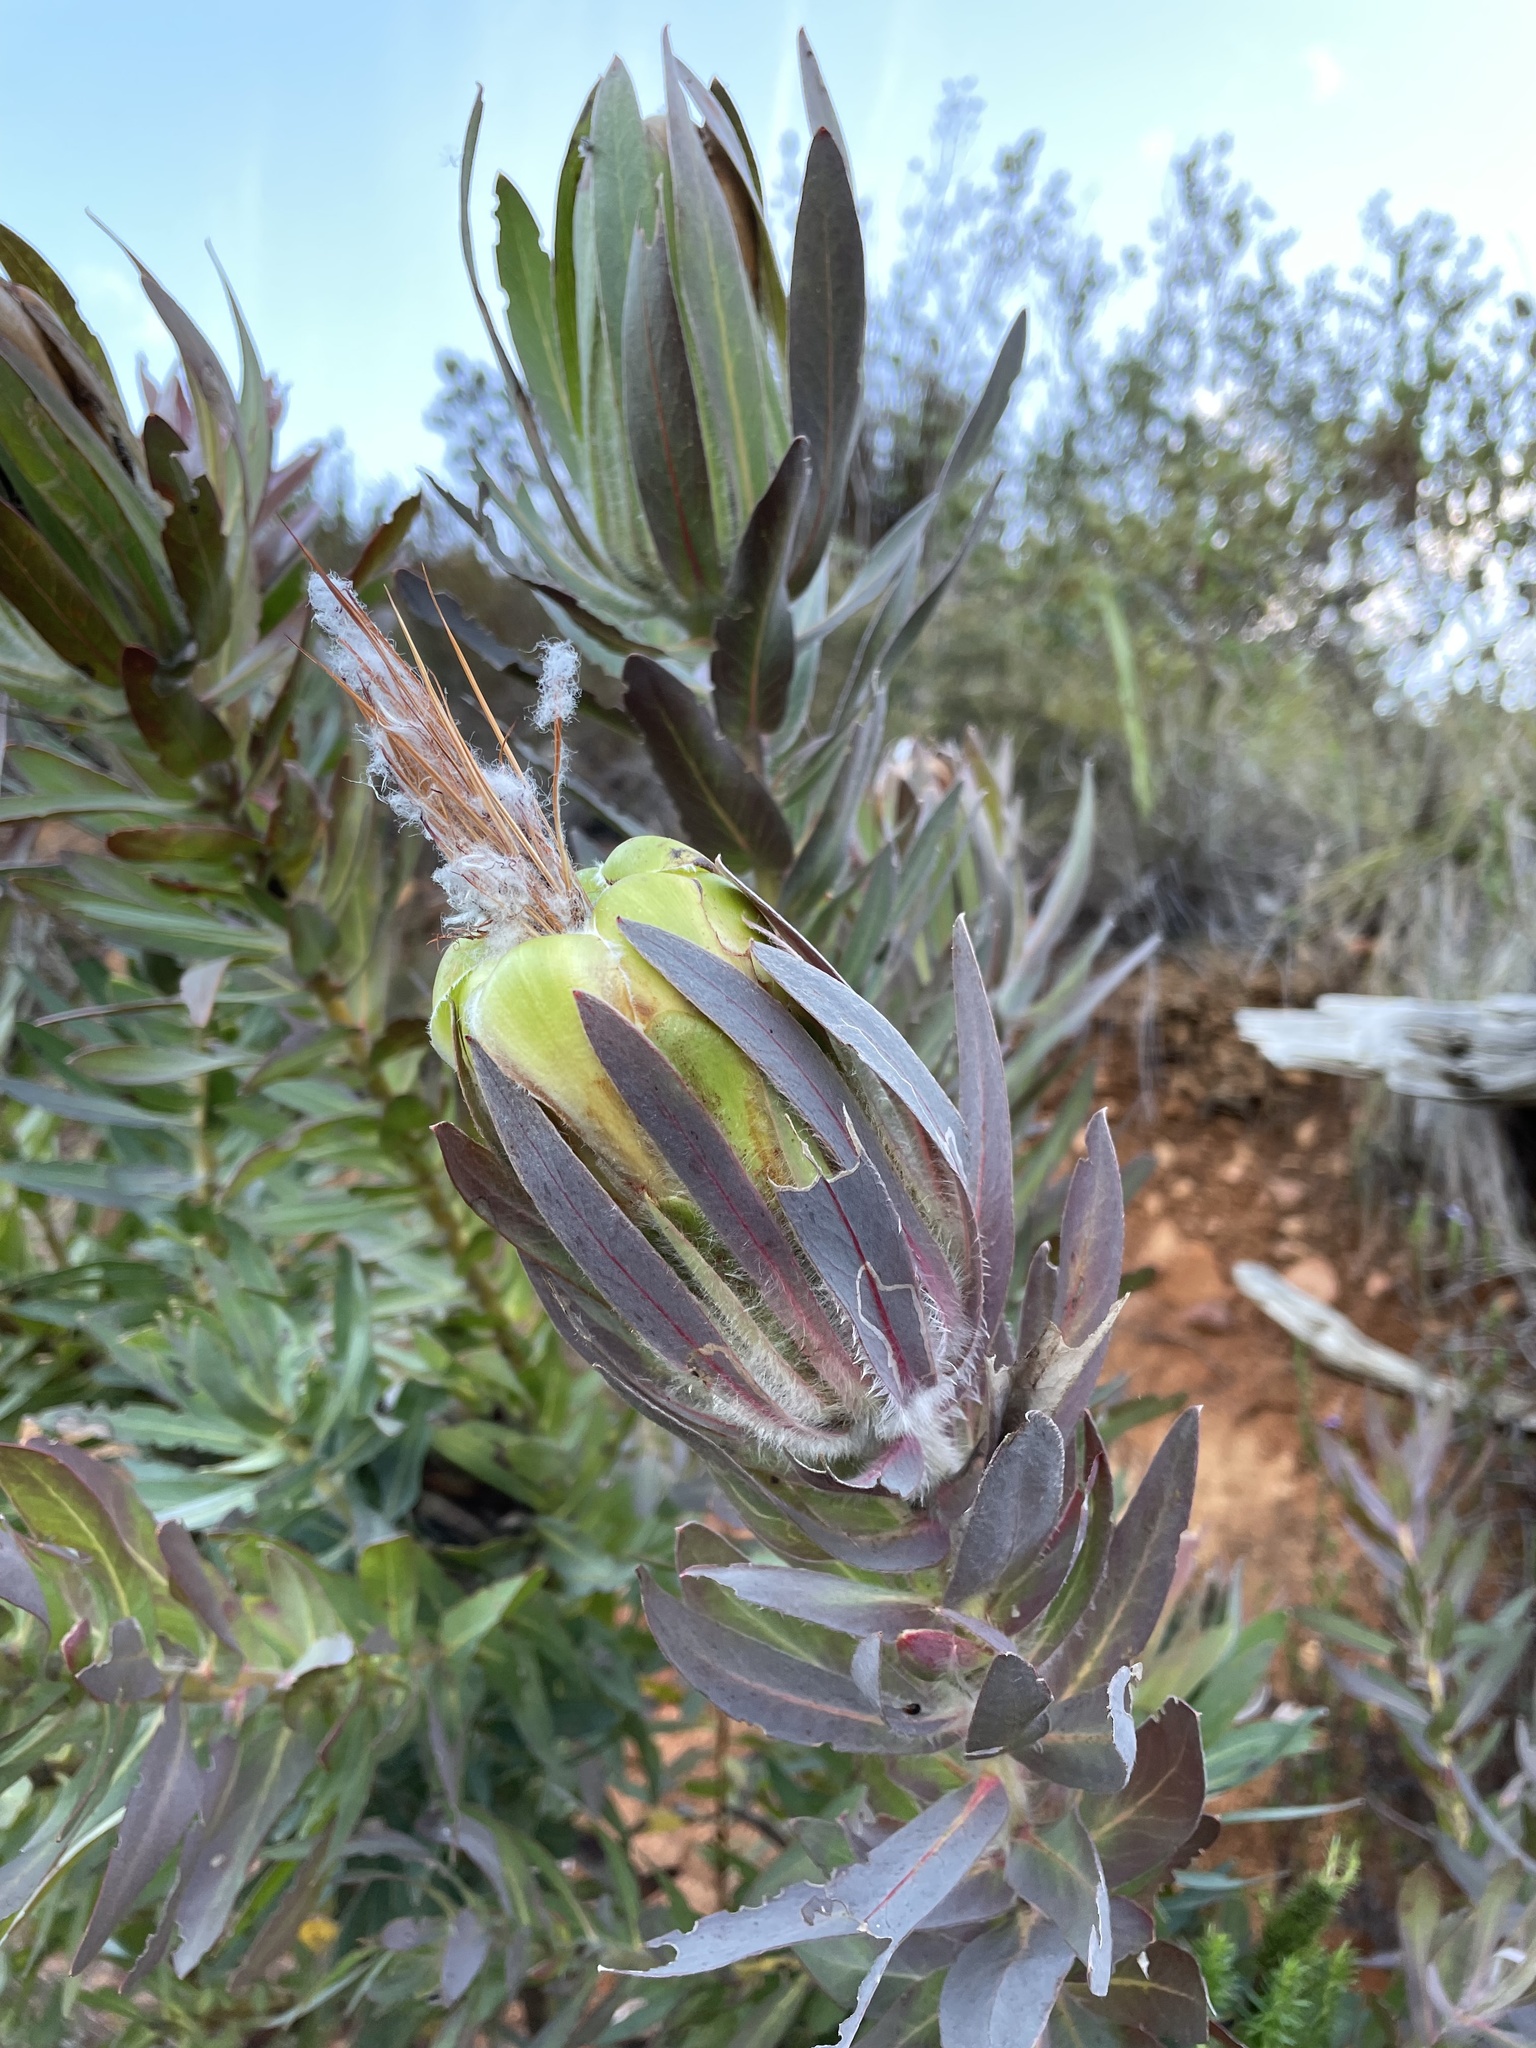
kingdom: Plantae
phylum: Tracheophyta
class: Magnoliopsida
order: Proteales
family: Proteaceae
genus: Protea
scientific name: Protea coronata
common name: Green sugarbush
